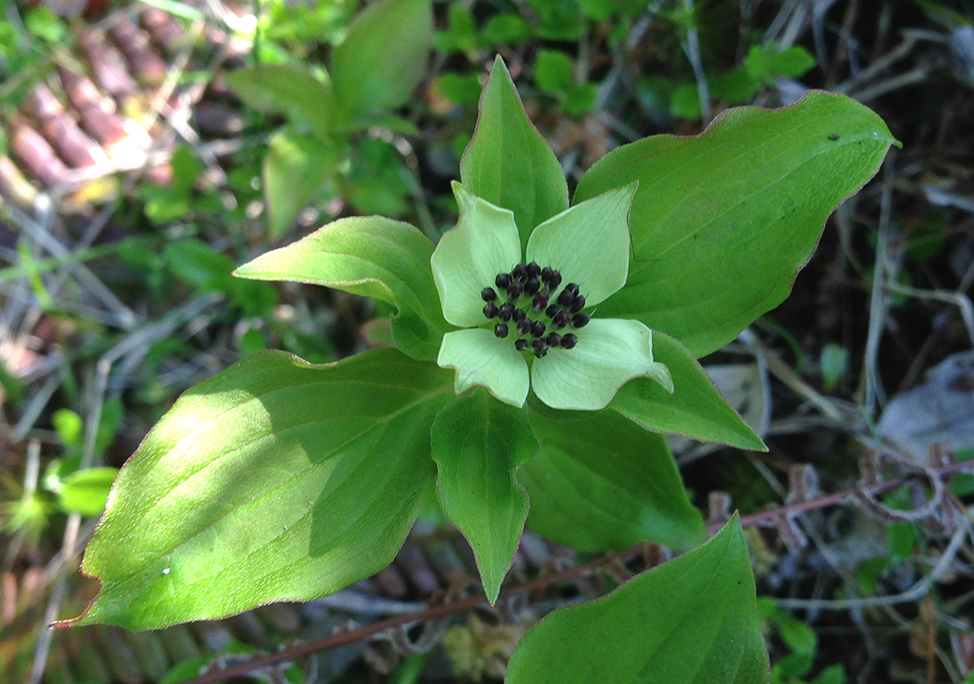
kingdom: Plantae
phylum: Tracheophyta
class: Magnoliopsida
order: Cornales
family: Cornaceae
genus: Cornus
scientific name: Cornus unalaschkensis
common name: Alaska bunchberry
